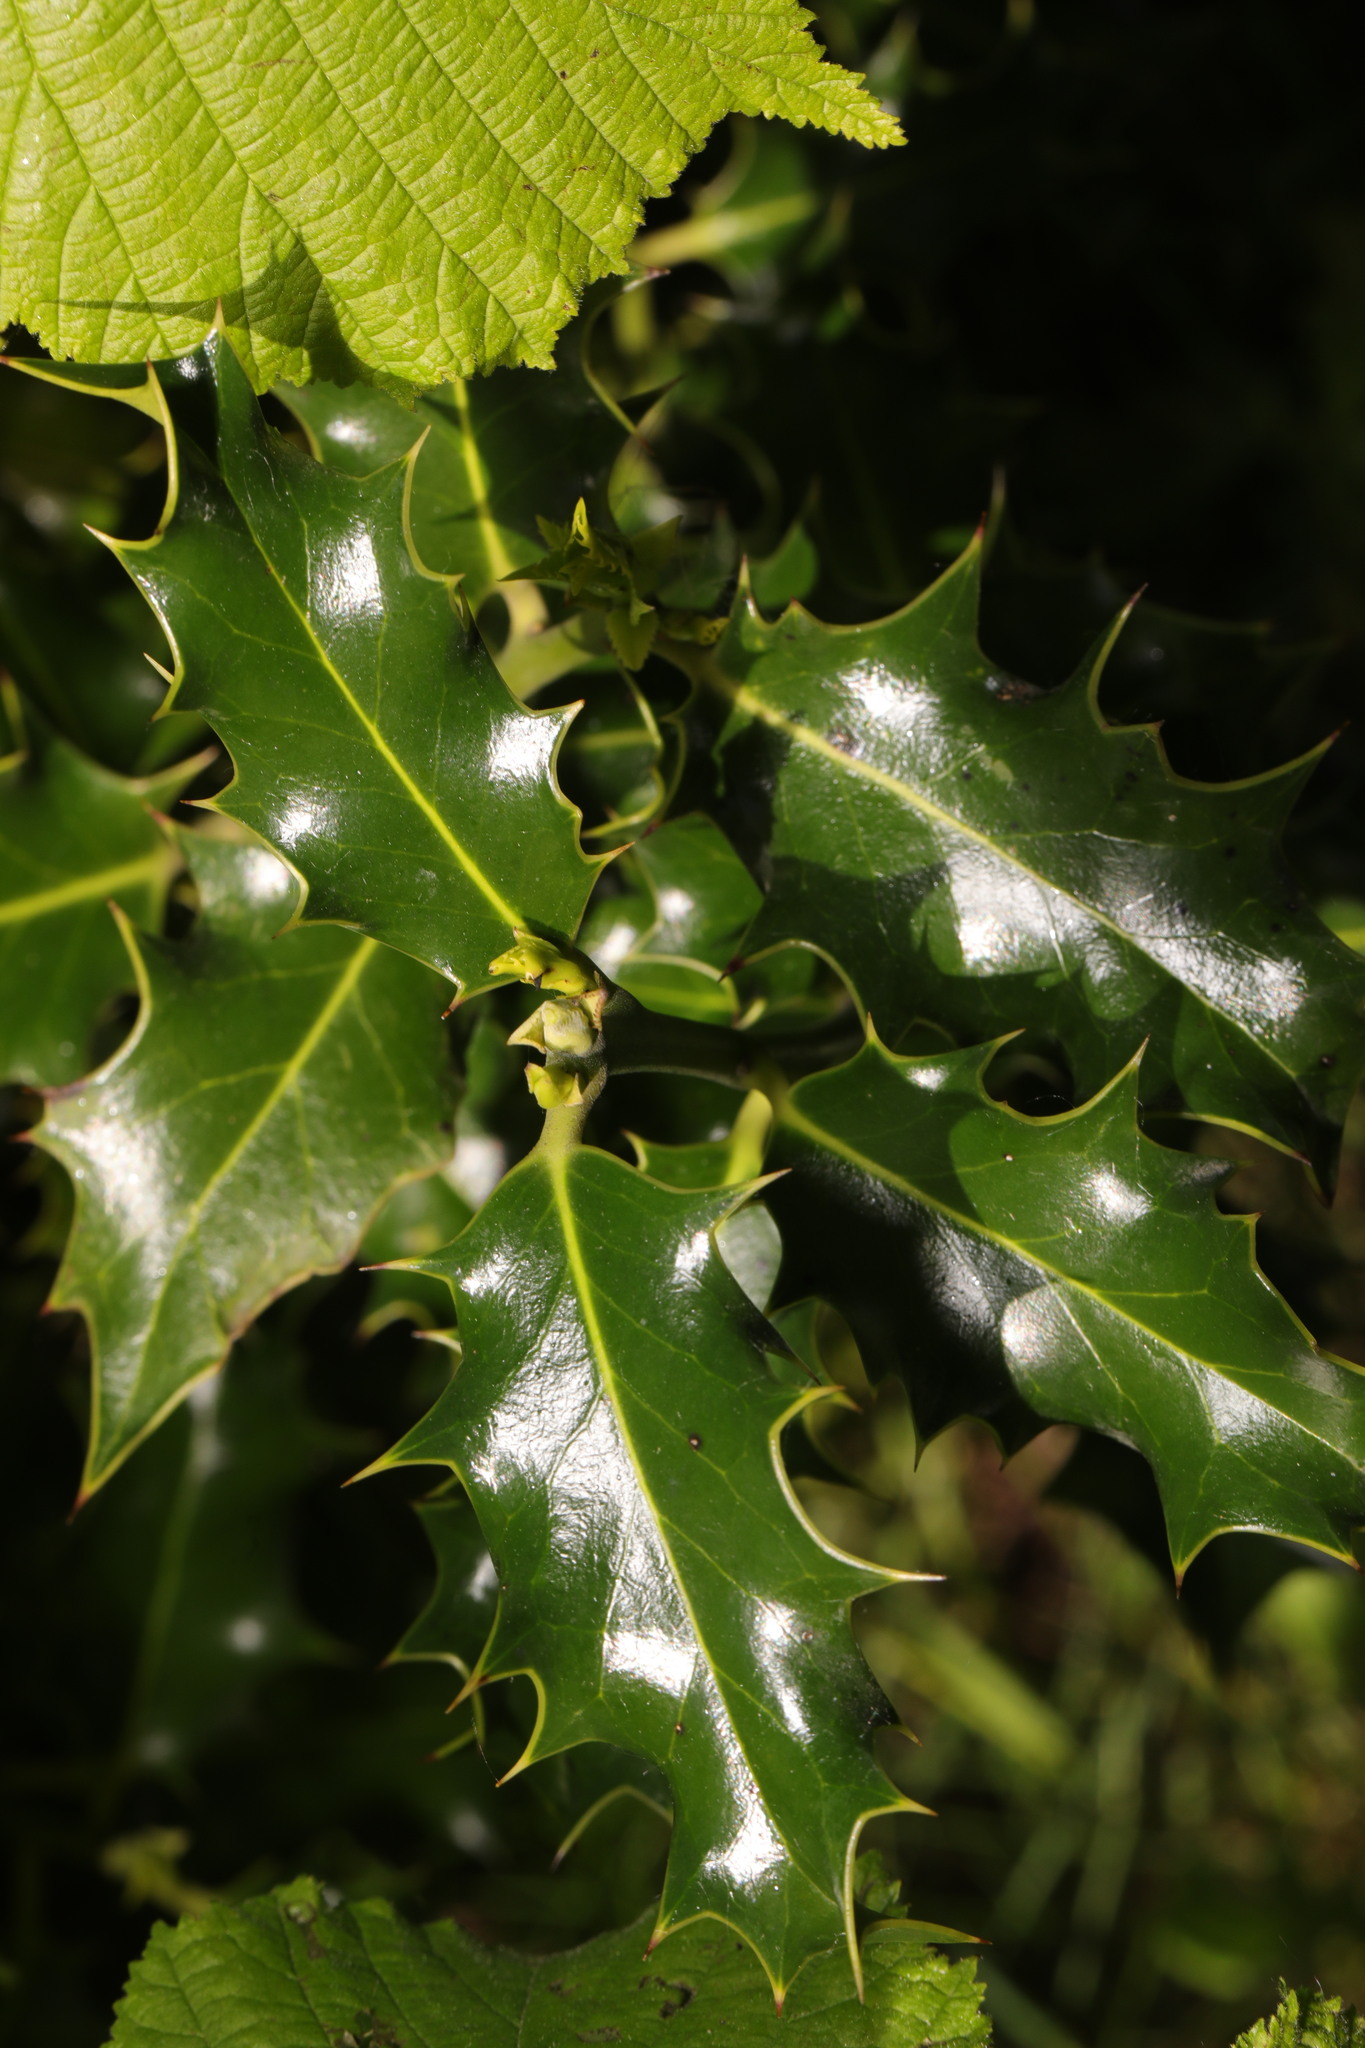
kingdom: Plantae
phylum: Tracheophyta
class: Magnoliopsida
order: Aquifoliales
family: Aquifoliaceae
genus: Ilex
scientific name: Ilex aquifolium
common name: English holly
